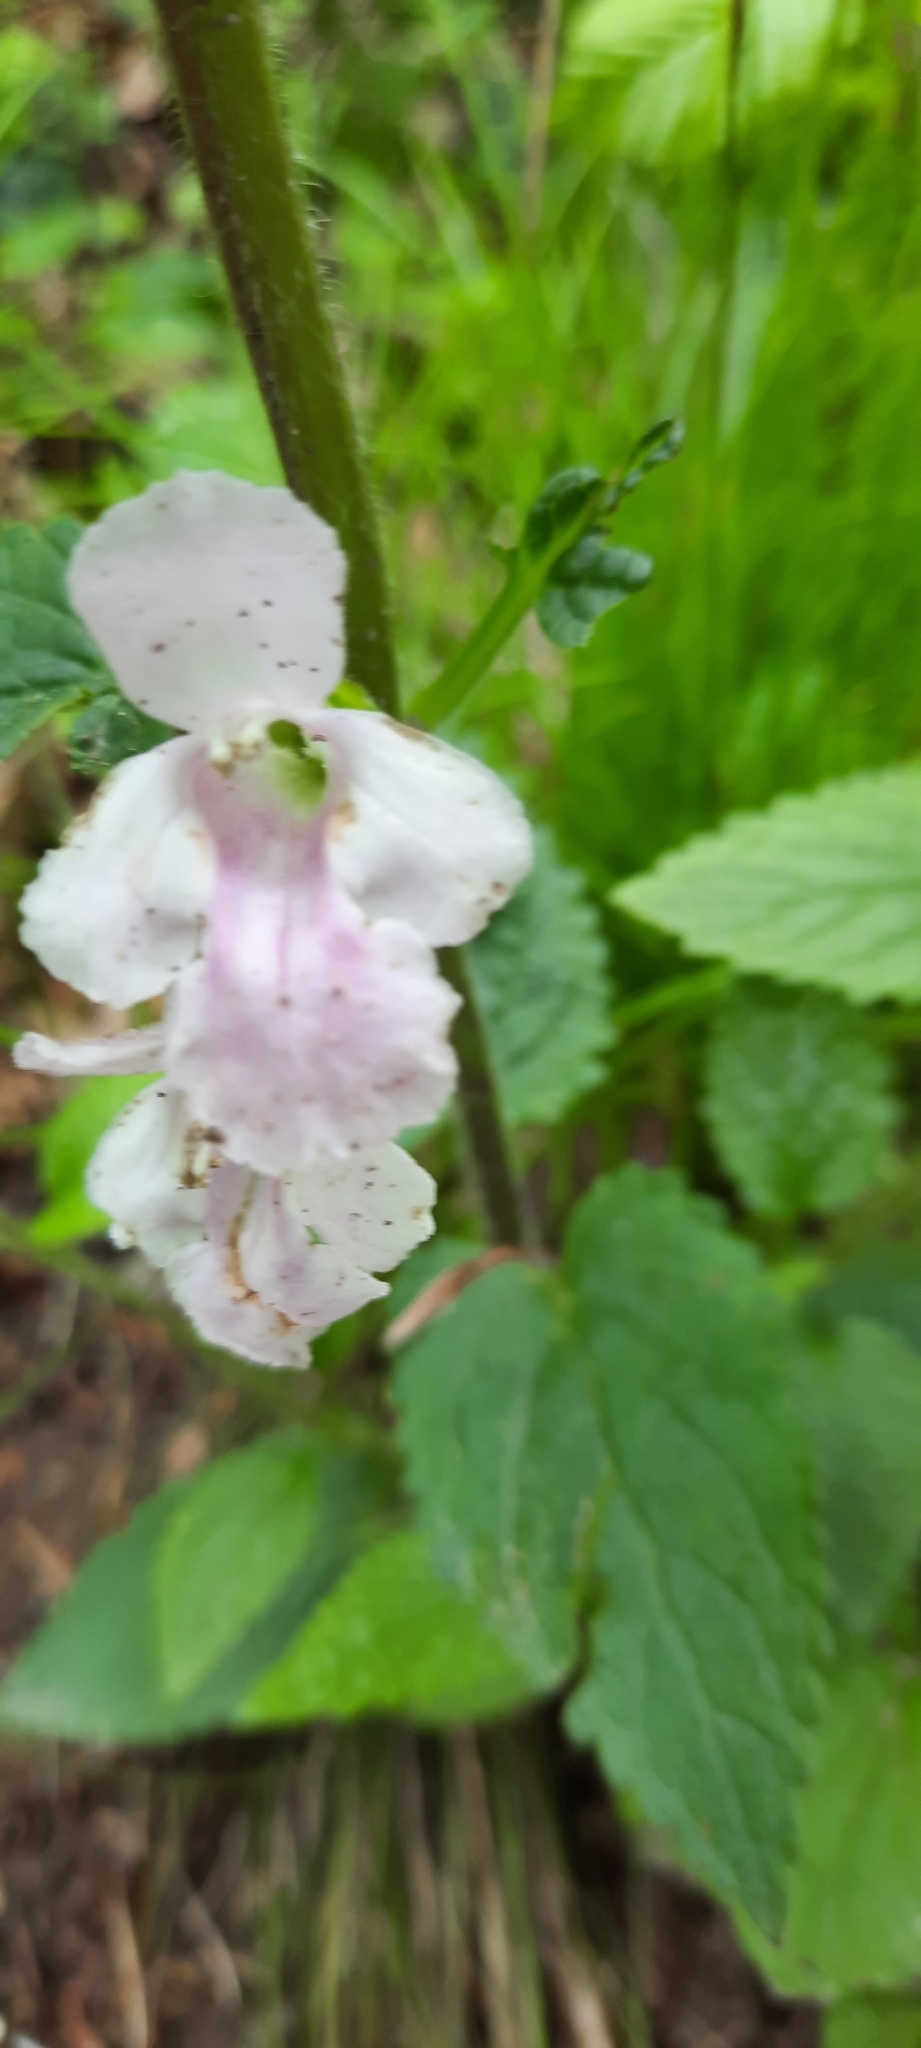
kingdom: Plantae
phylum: Tracheophyta
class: Magnoliopsida
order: Lamiales
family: Lamiaceae
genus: Melittis
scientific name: Melittis melissophyllum
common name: Bastard balm
